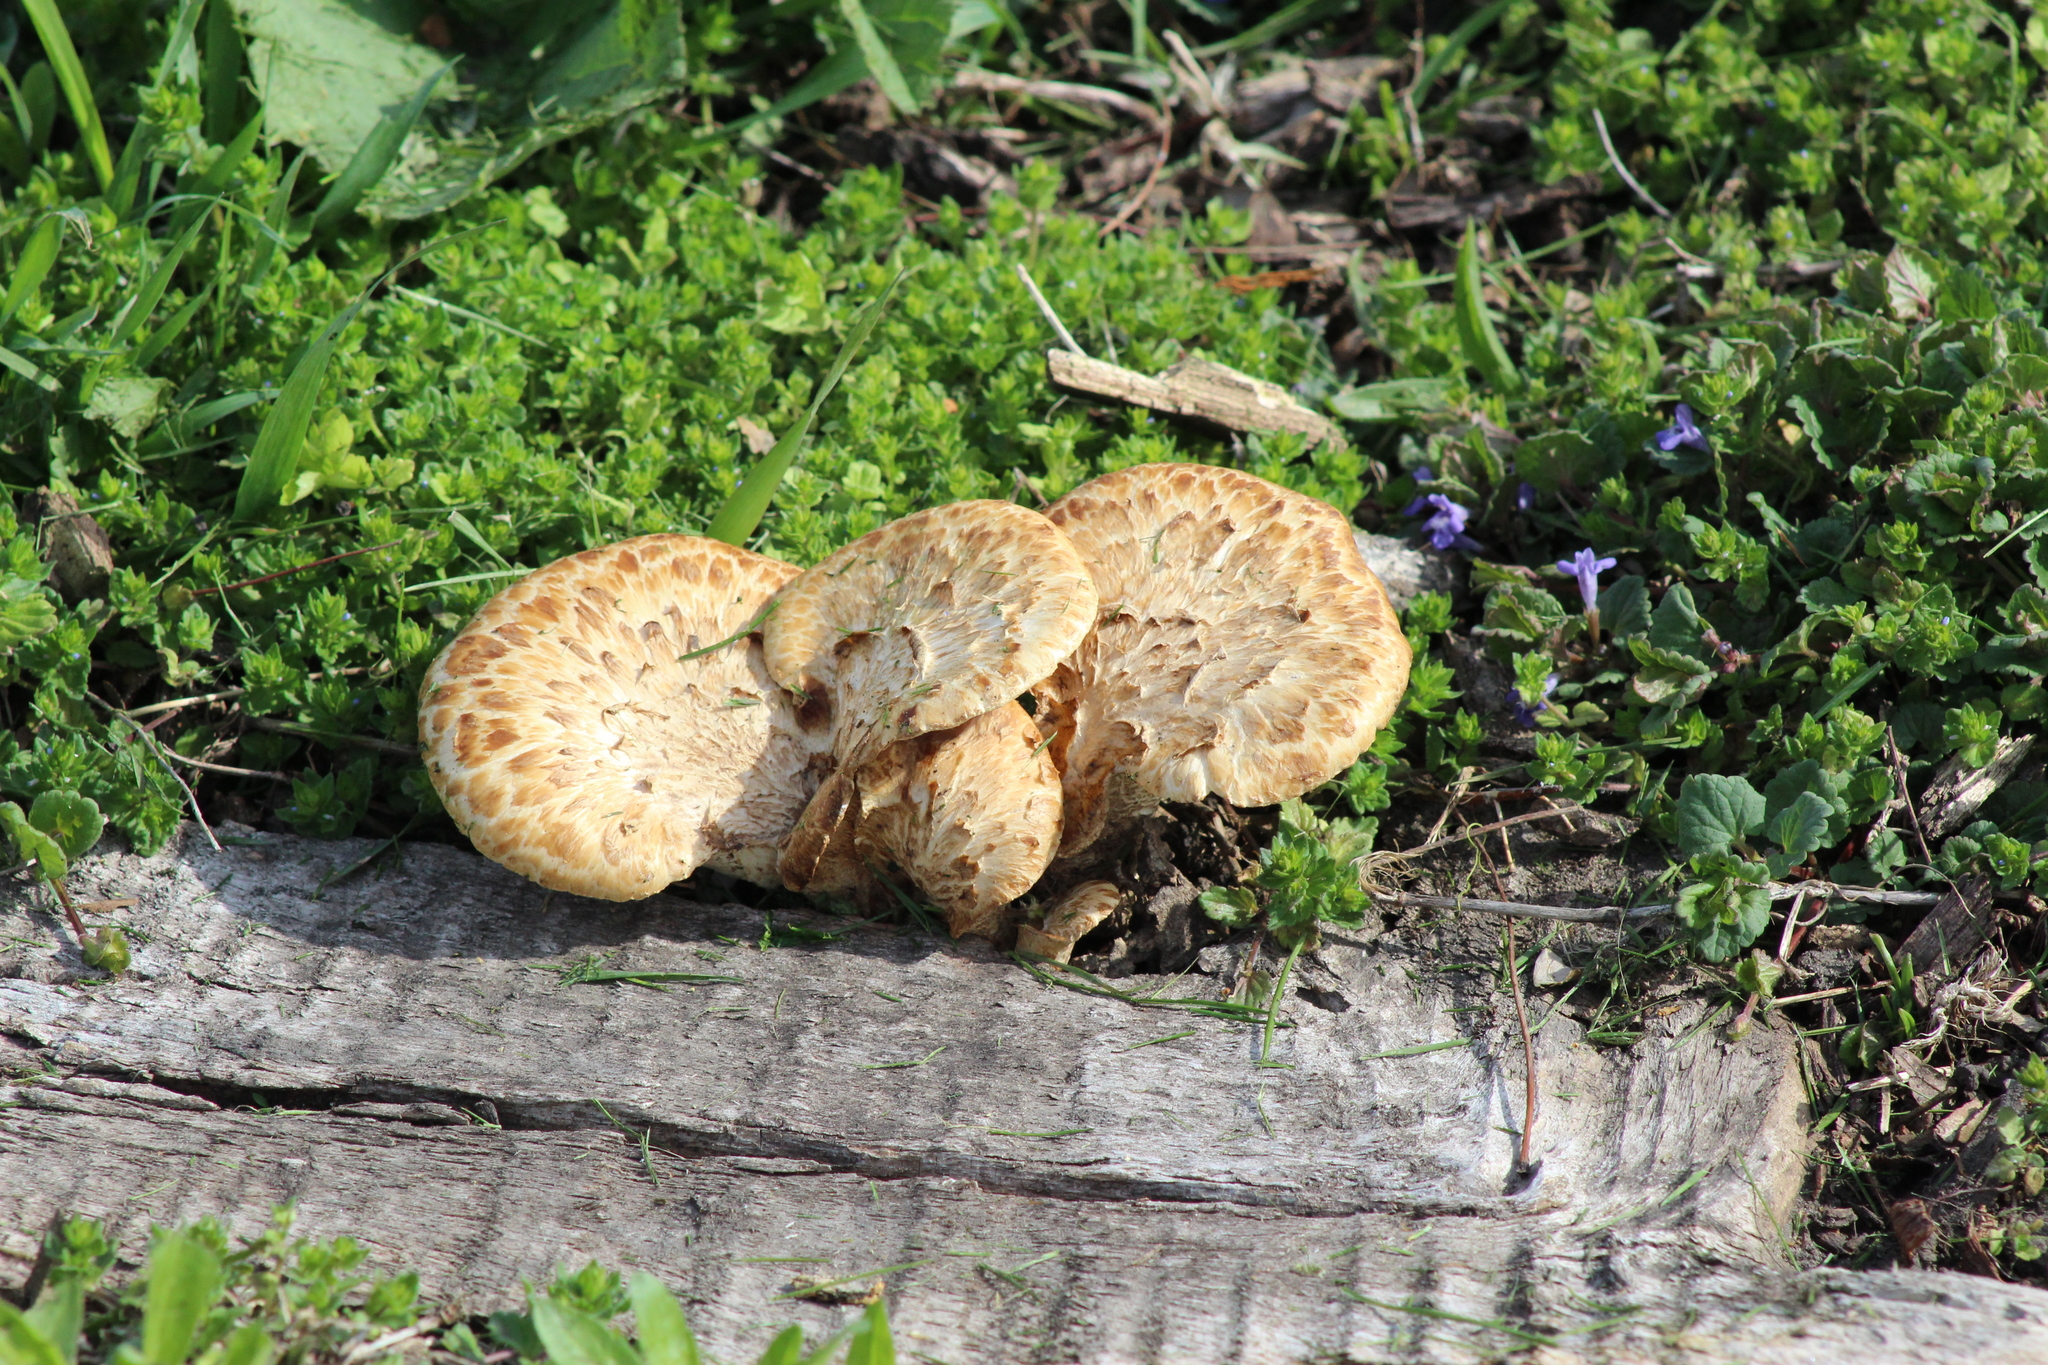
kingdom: Fungi
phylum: Basidiomycota
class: Agaricomycetes
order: Polyporales
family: Polyporaceae
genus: Cerioporus
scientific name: Cerioporus squamosus
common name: Dryad's saddle
